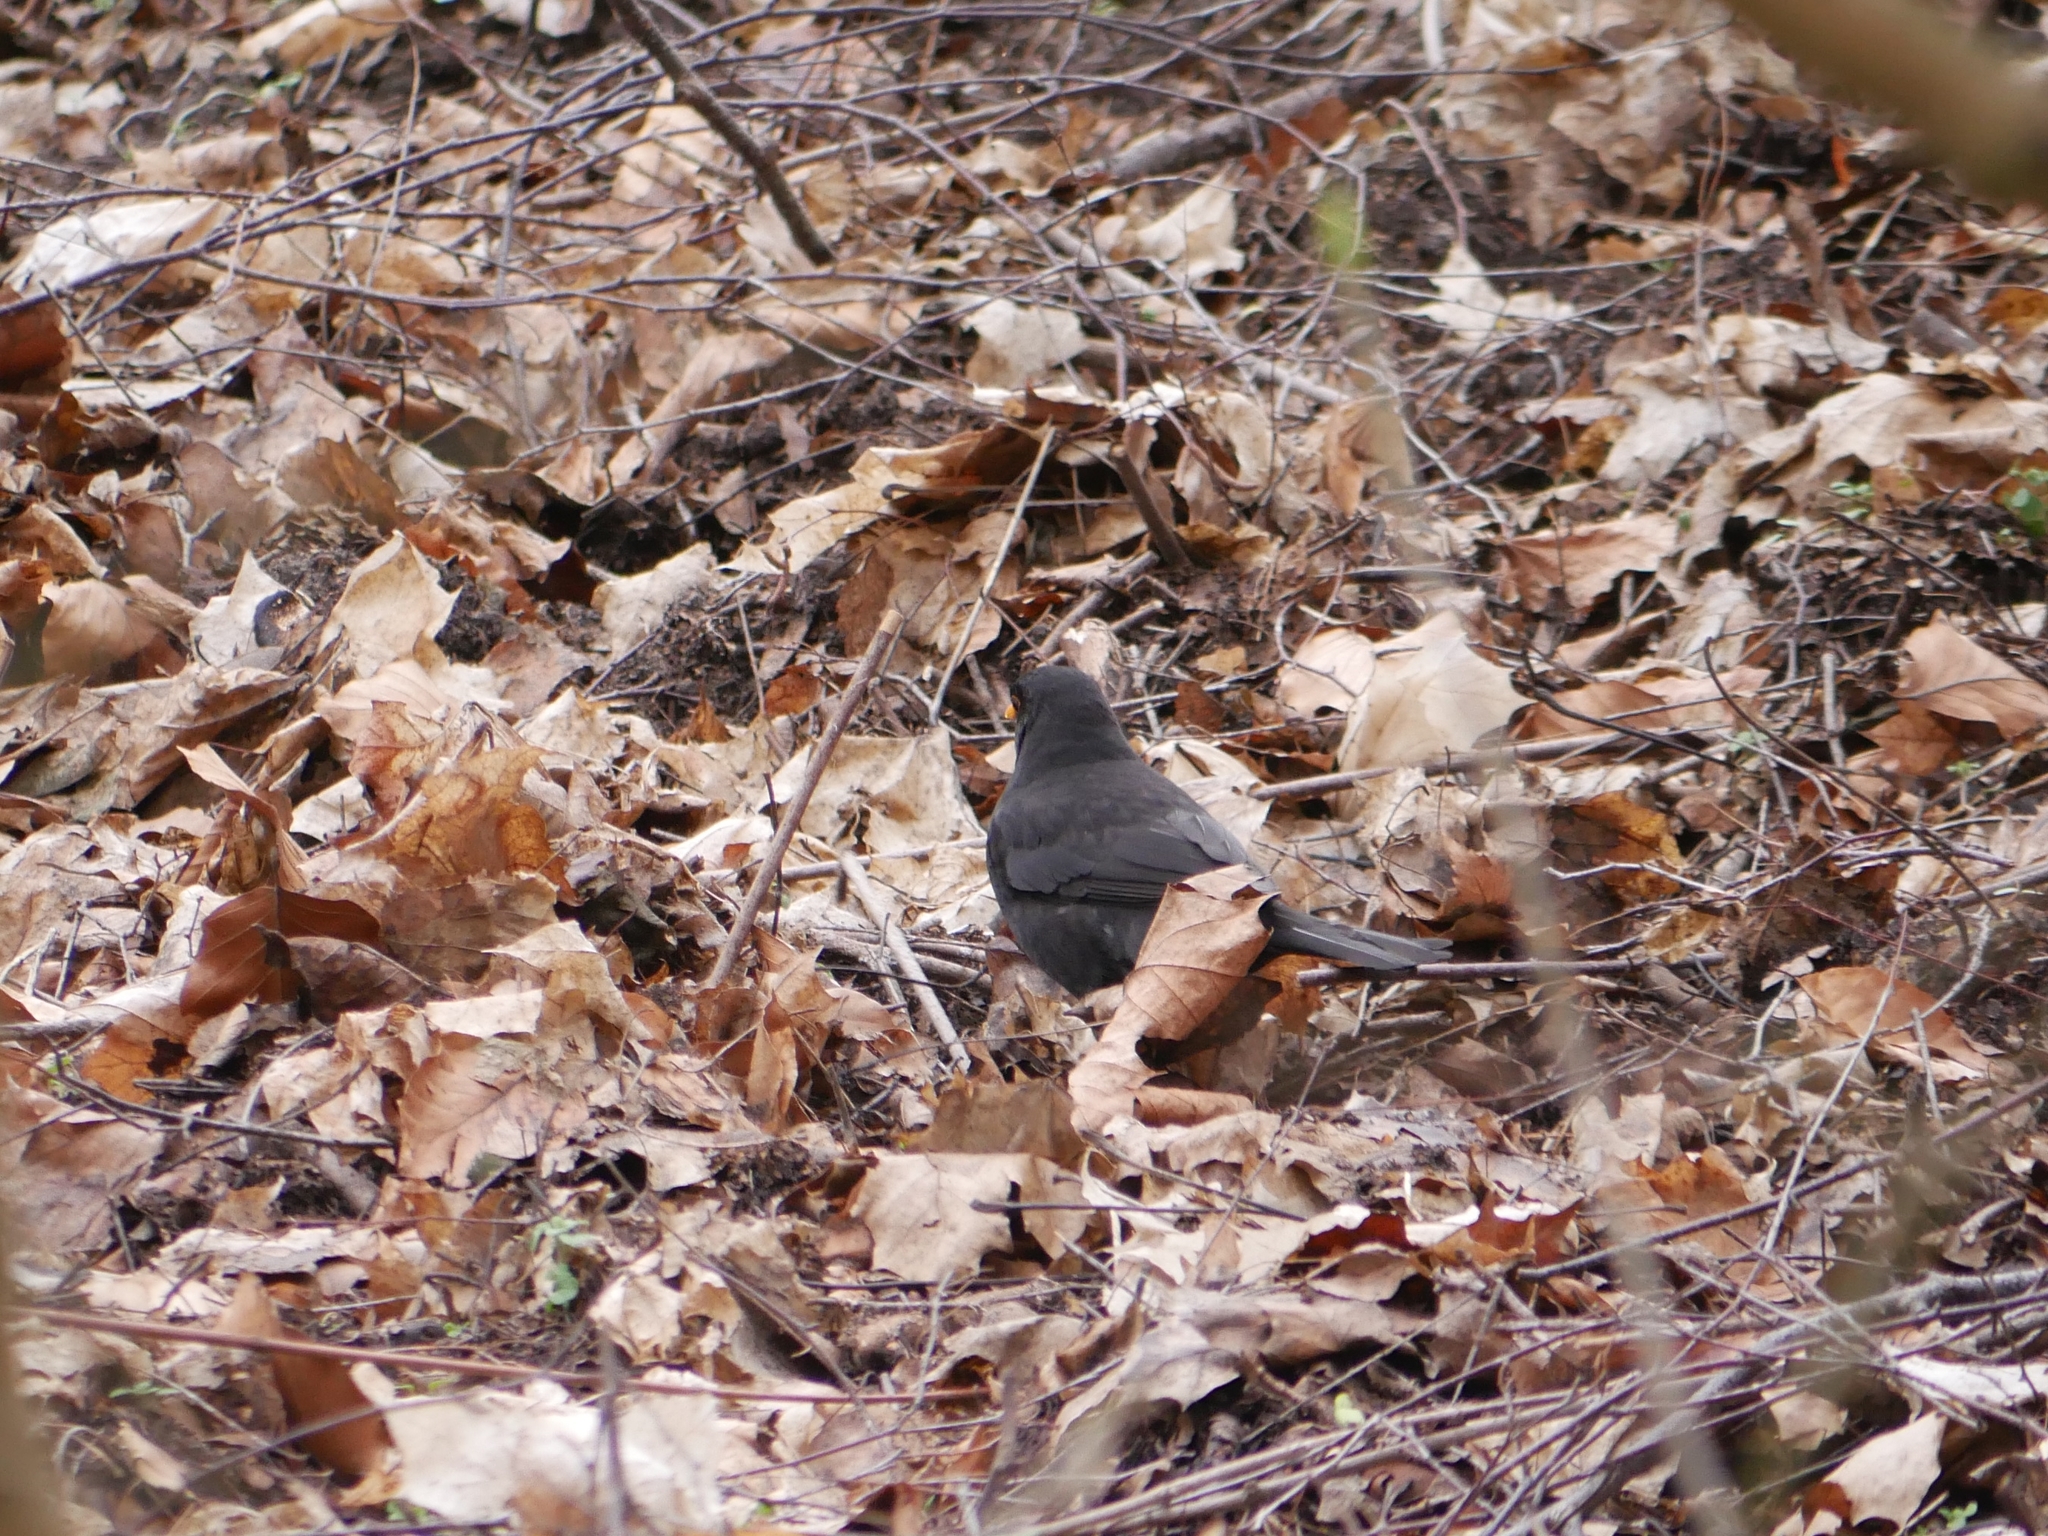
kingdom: Animalia
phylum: Chordata
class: Aves
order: Passeriformes
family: Turdidae
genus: Turdus
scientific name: Turdus merula
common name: Common blackbird
